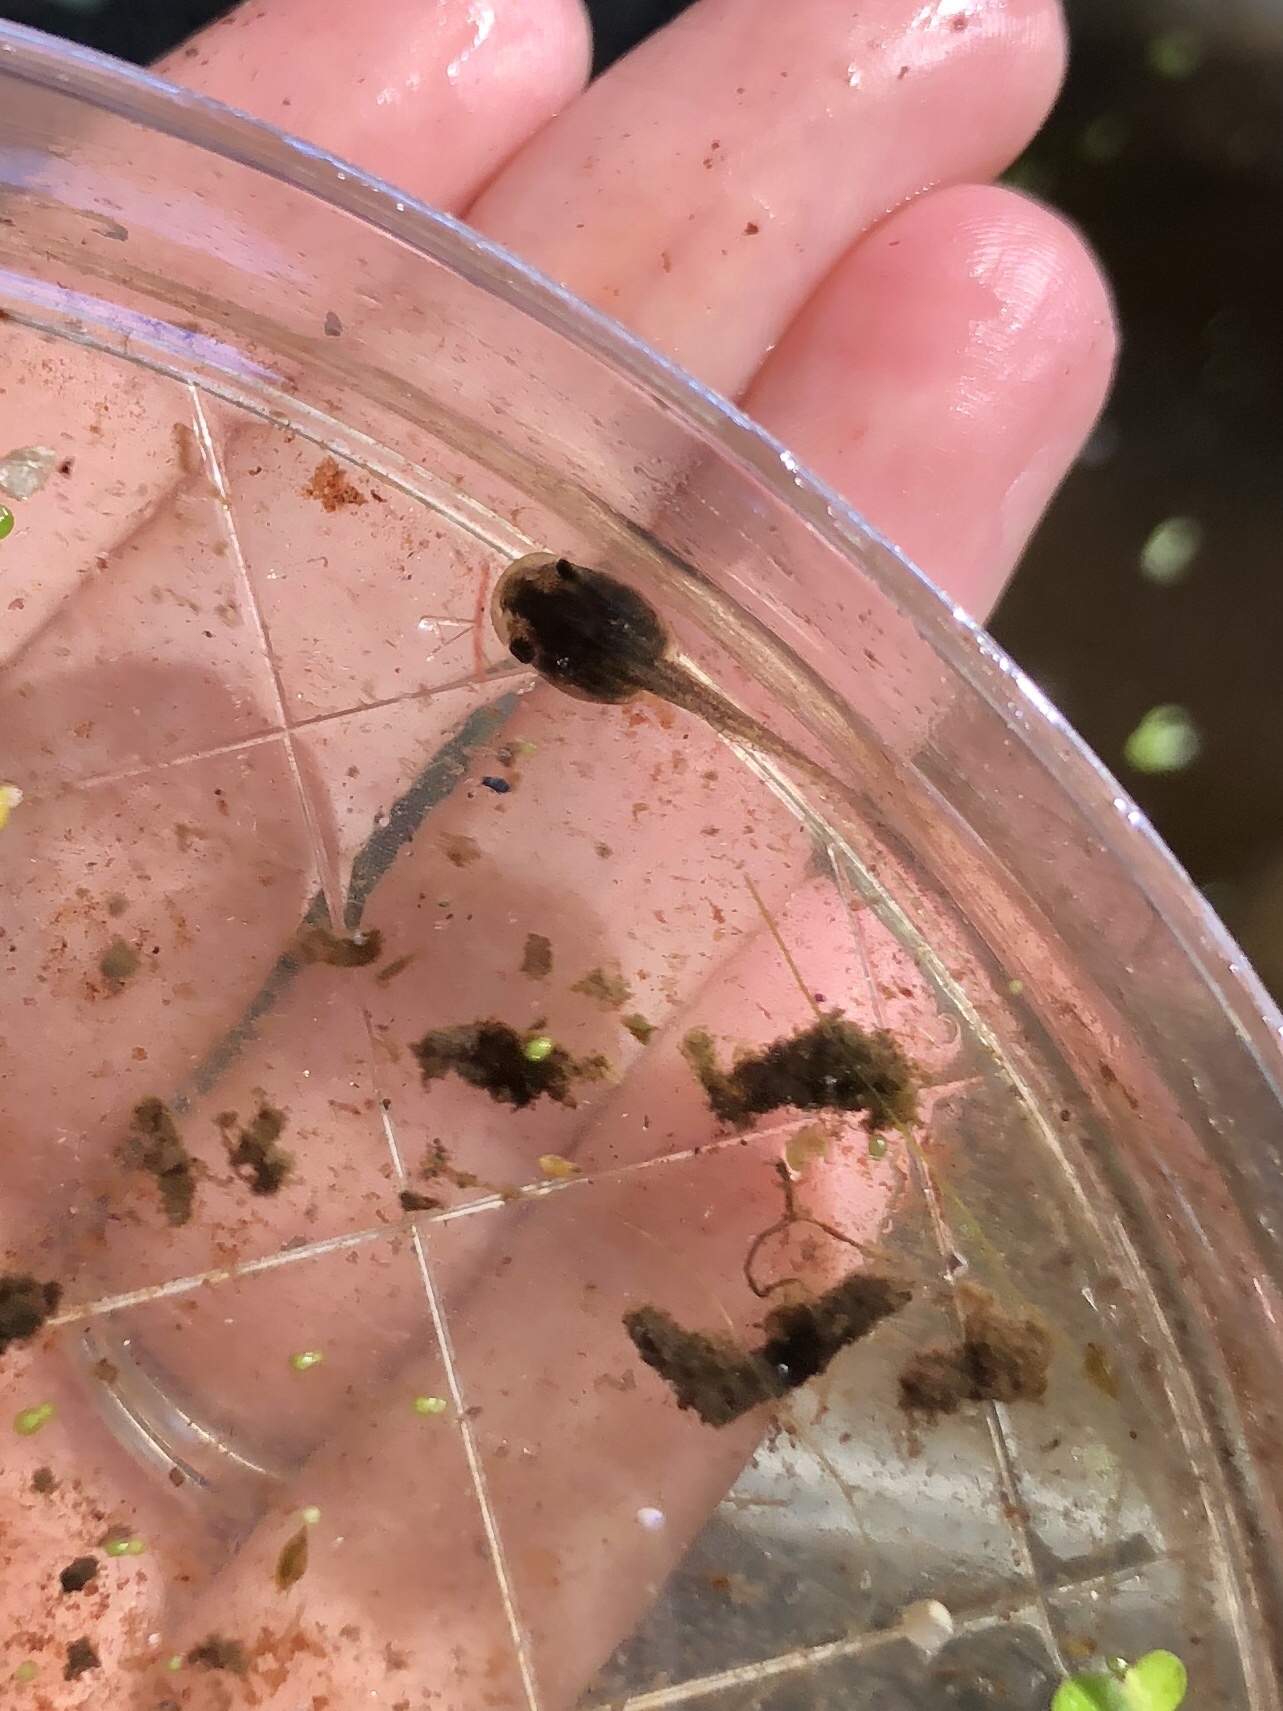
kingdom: Animalia
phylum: Chordata
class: Amphibia
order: Anura
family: Hylidae
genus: Pseudacris
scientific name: Pseudacris crucifer
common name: Spring peeper
